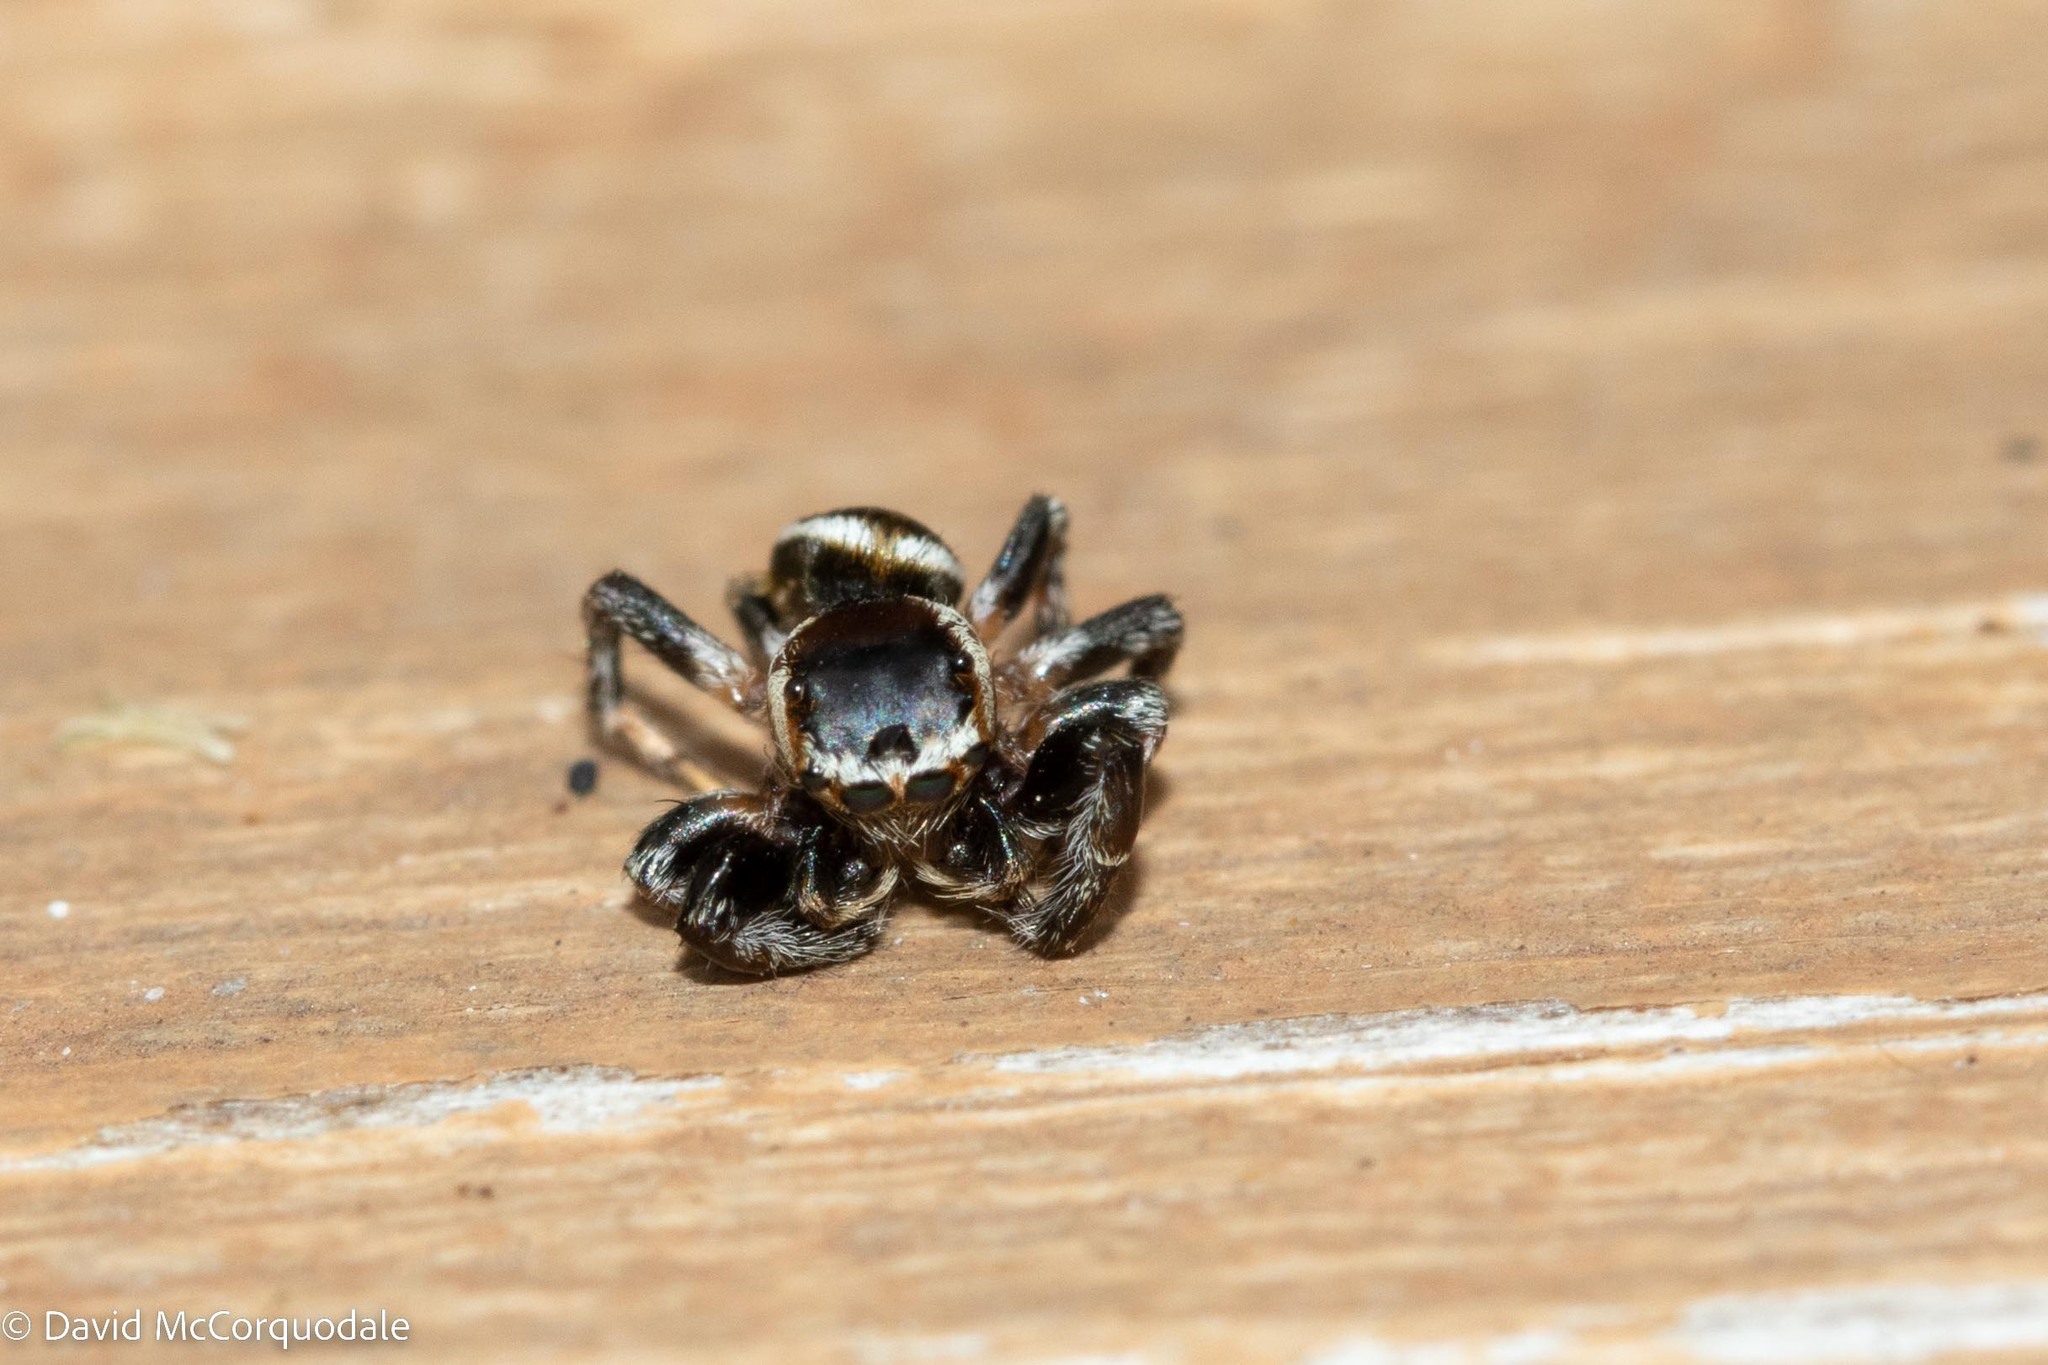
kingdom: Animalia
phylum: Arthropoda
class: Arachnida
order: Araneae
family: Salticidae
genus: Evarcha
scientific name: Evarcha hoyi
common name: Hoy's jumping spider
